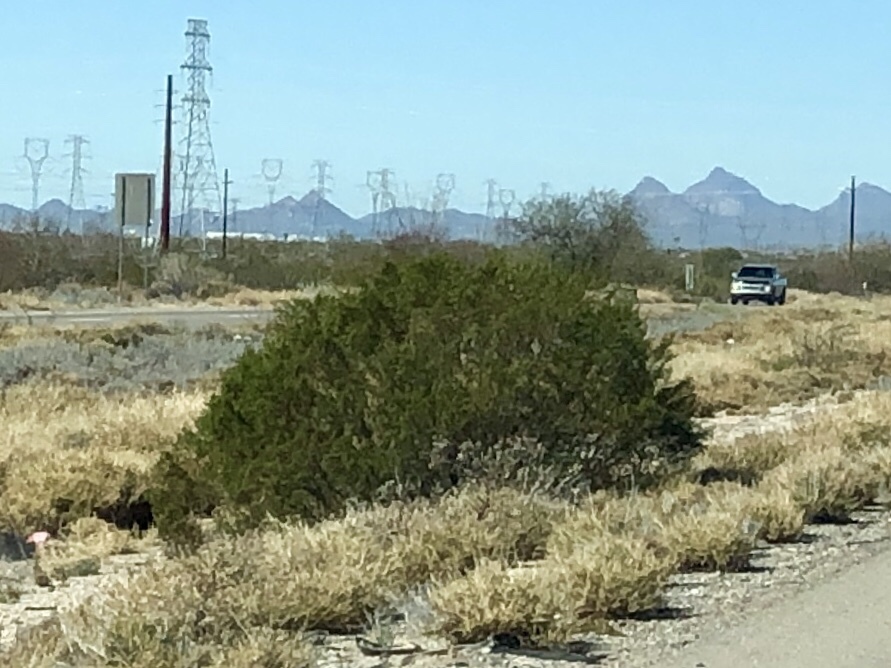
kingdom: Plantae
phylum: Tracheophyta
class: Magnoliopsida
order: Zygophyllales
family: Zygophyllaceae
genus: Larrea
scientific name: Larrea tridentata
